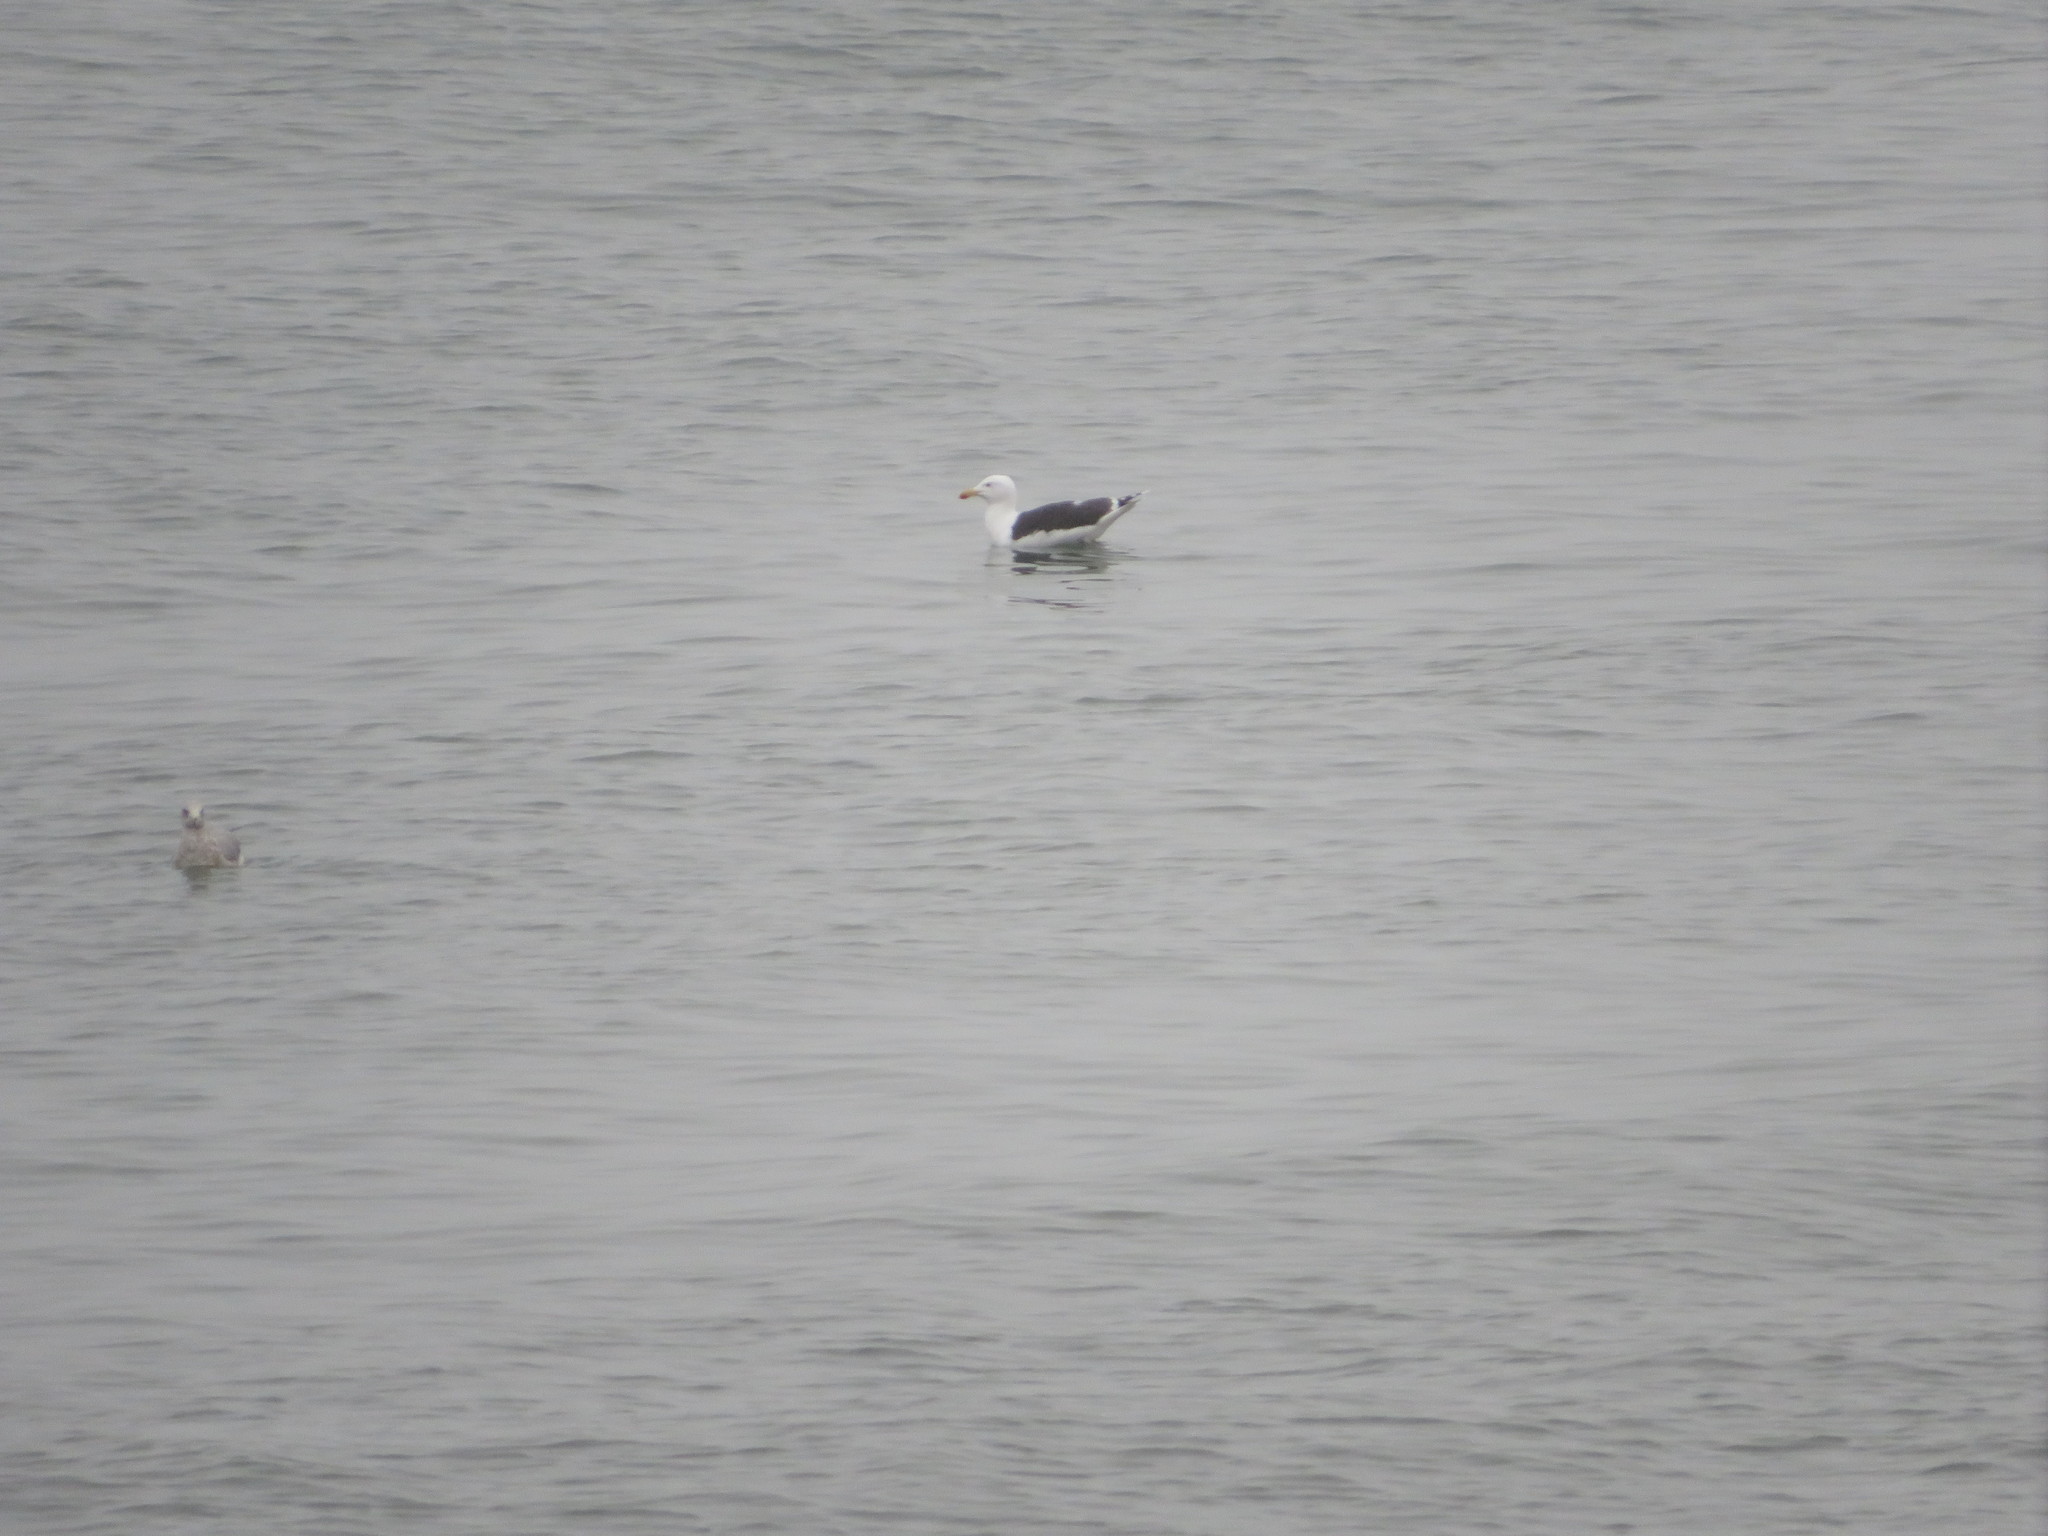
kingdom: Animalia
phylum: Chordata
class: Aves
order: Charadriiformes
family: Laridae
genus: Larus
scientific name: Larus marinus
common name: Great black-backed gull
